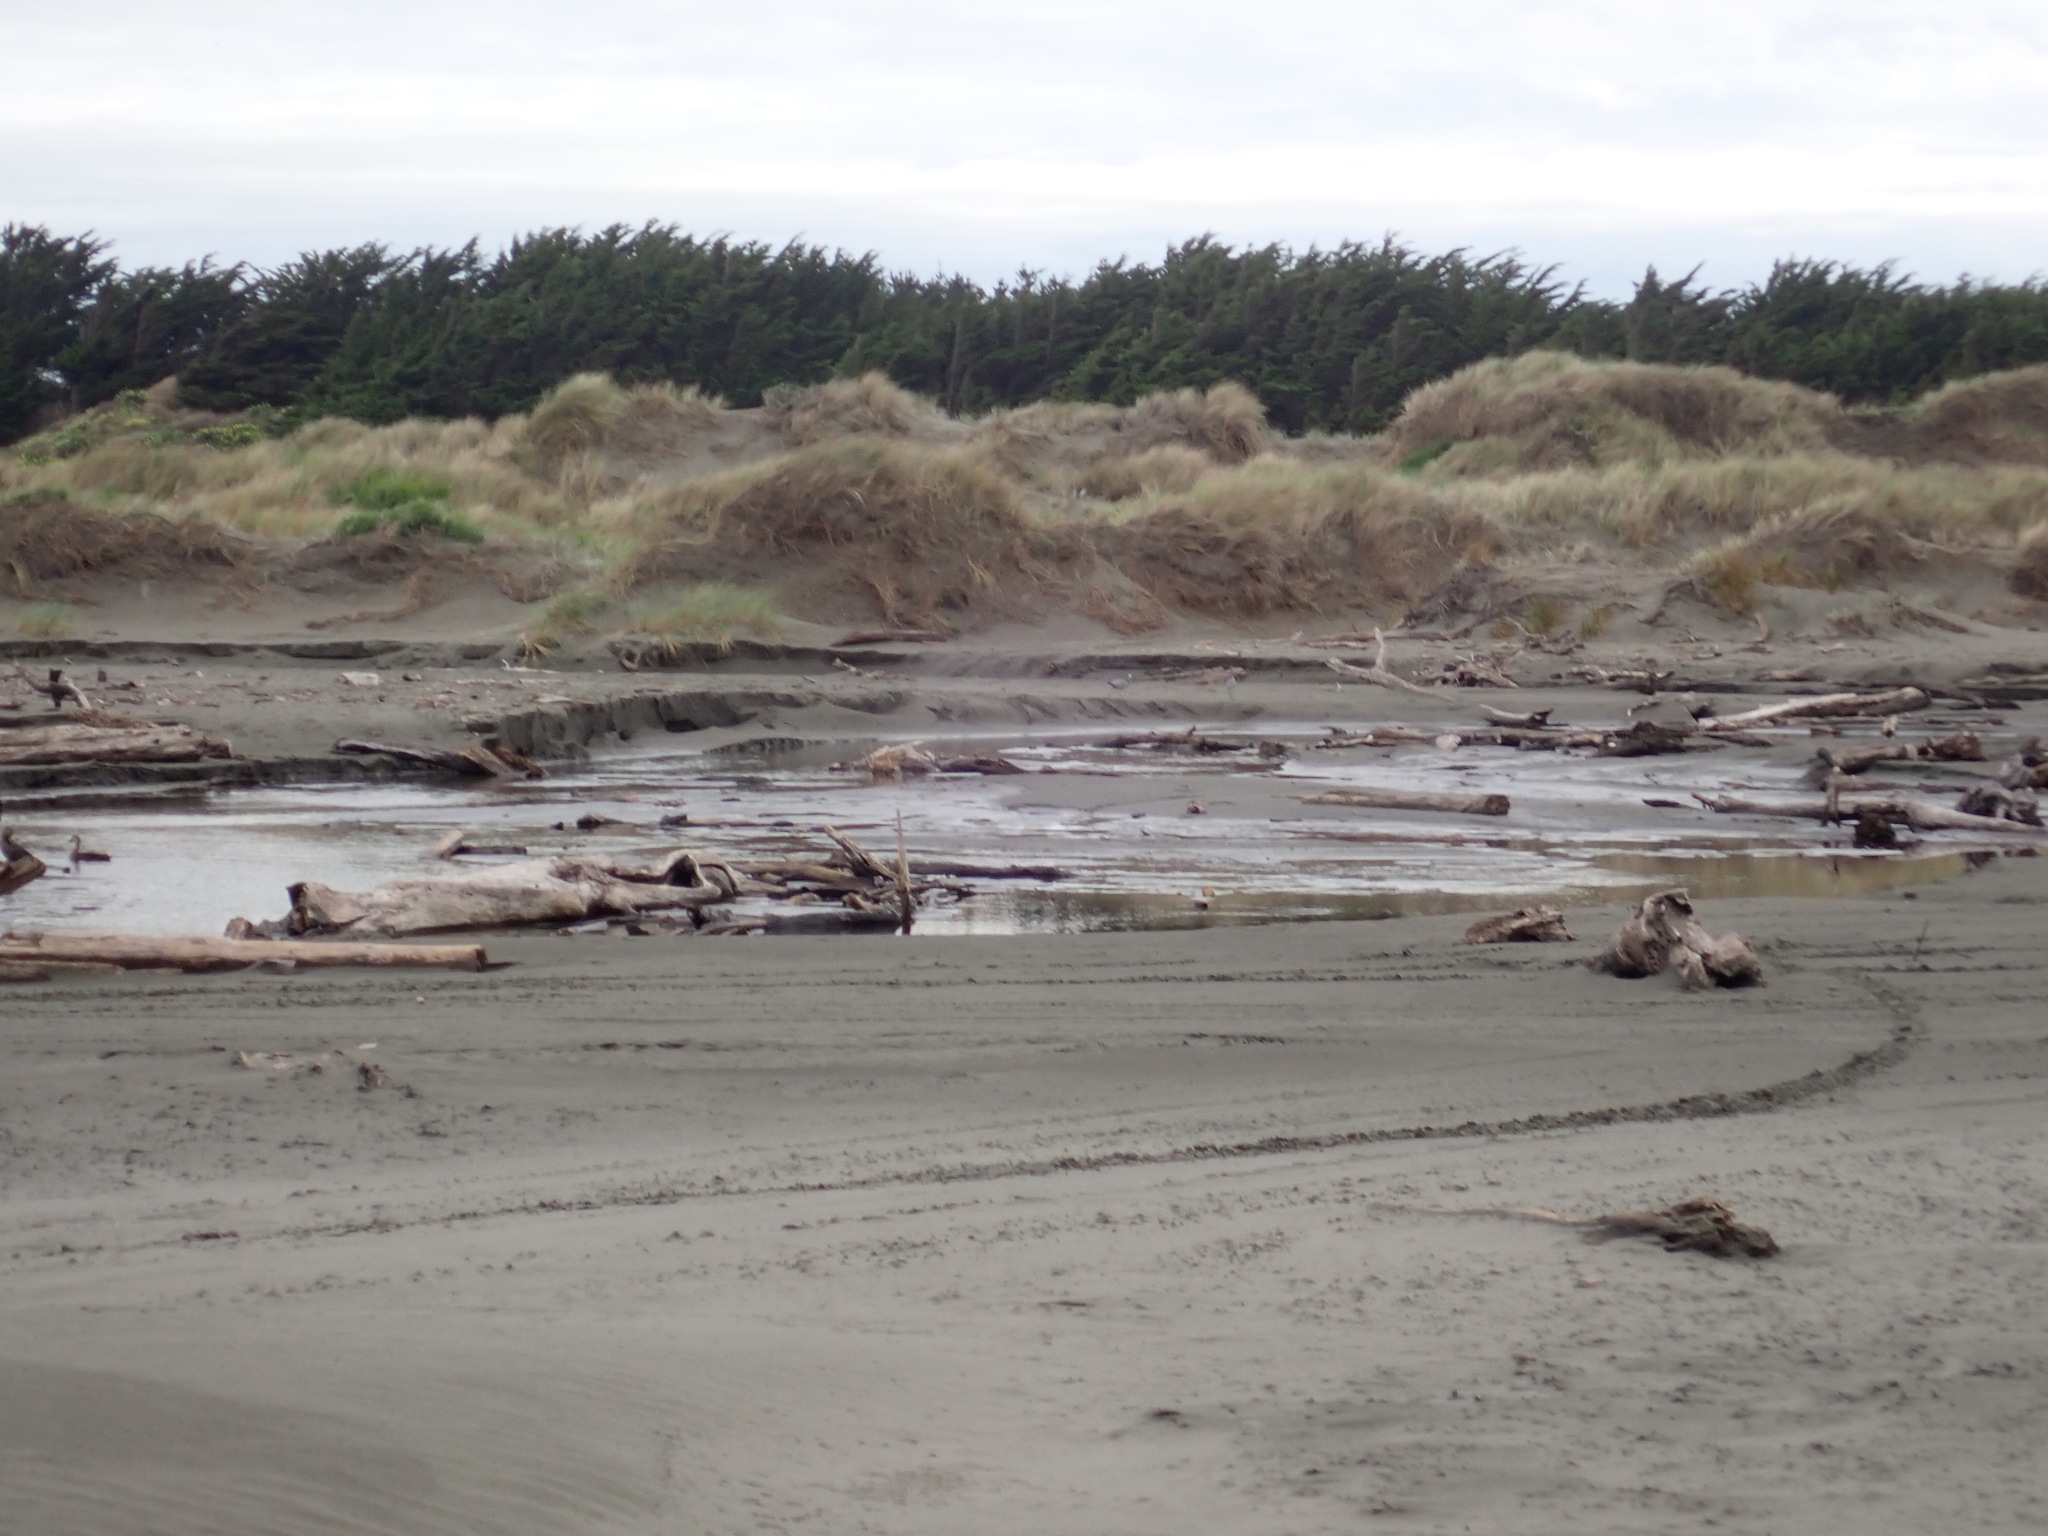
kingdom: Animalia
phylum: Chordata
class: Aves
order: Pelecaniformes
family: Ardeidae
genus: Egretta
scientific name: Egretta novaehollandiae
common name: White-faced heron
